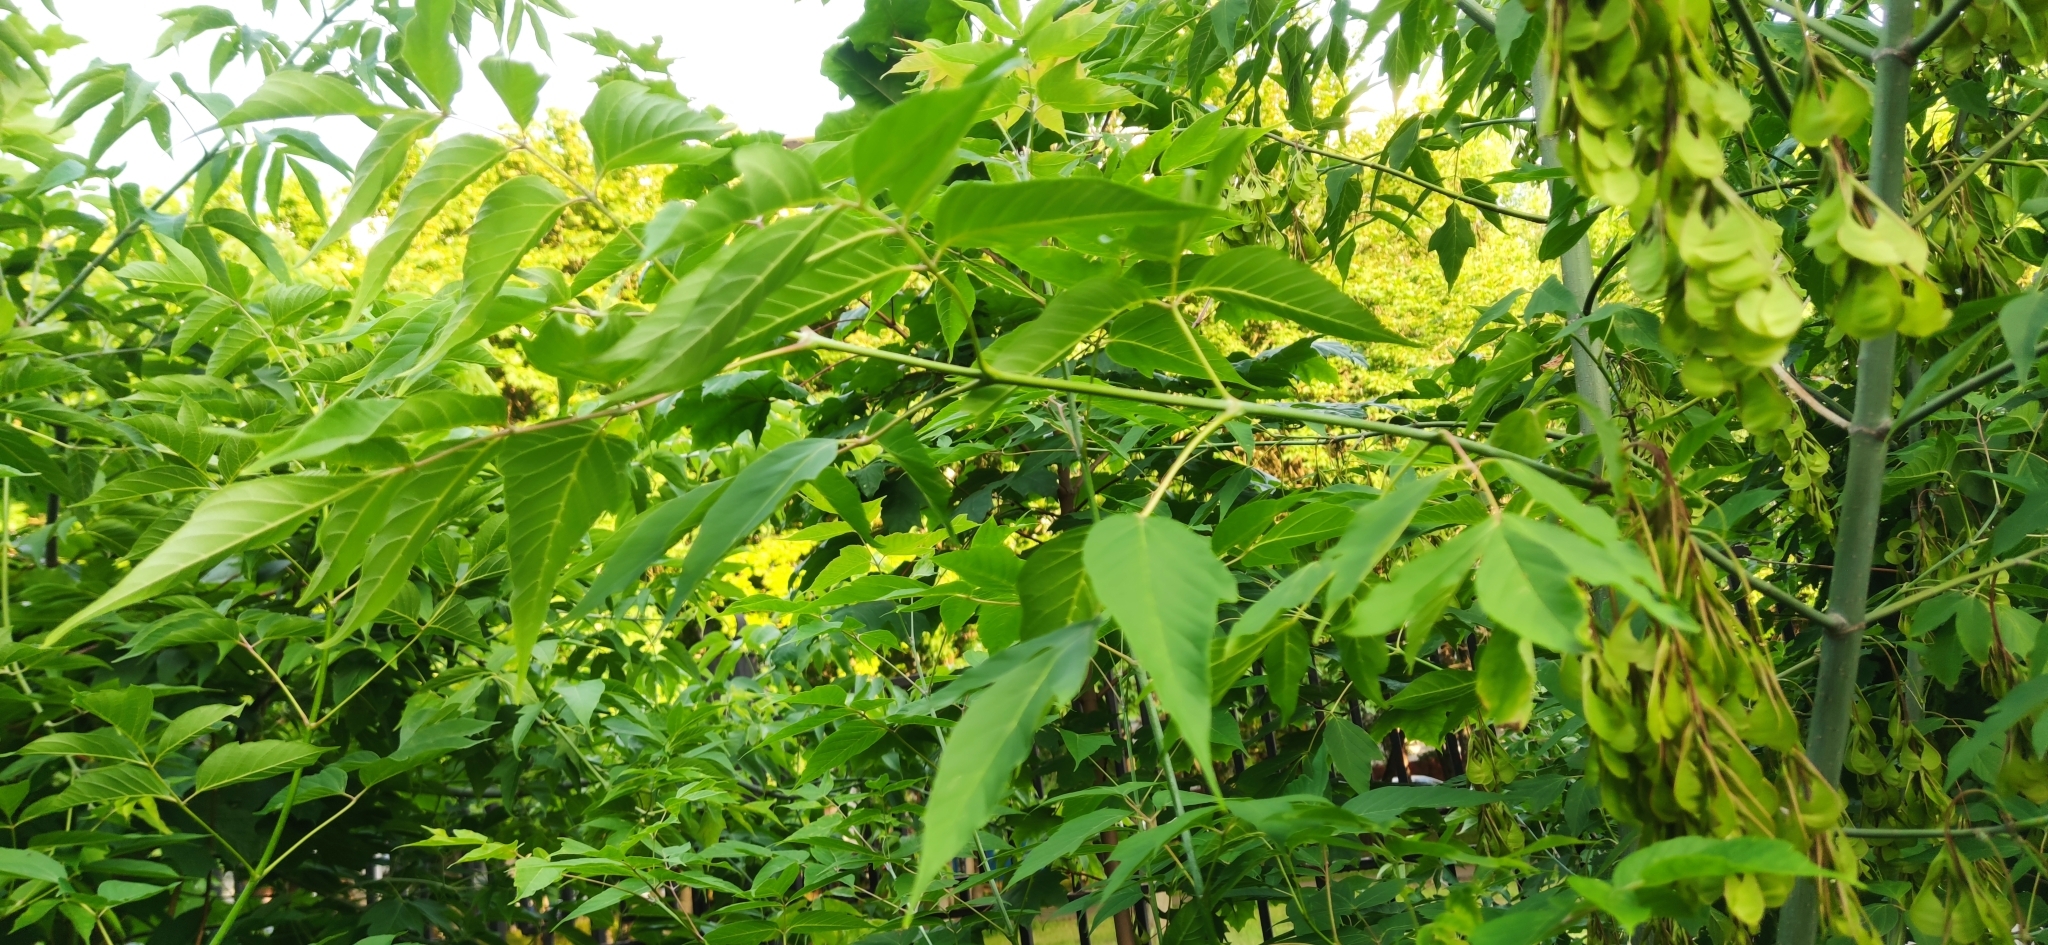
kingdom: Plantae
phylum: Tracheophyta
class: Magnoliopsida
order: Sapindales
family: Sapindaceae
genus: Acer
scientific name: Acer negundo
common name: Ashleaf maple
